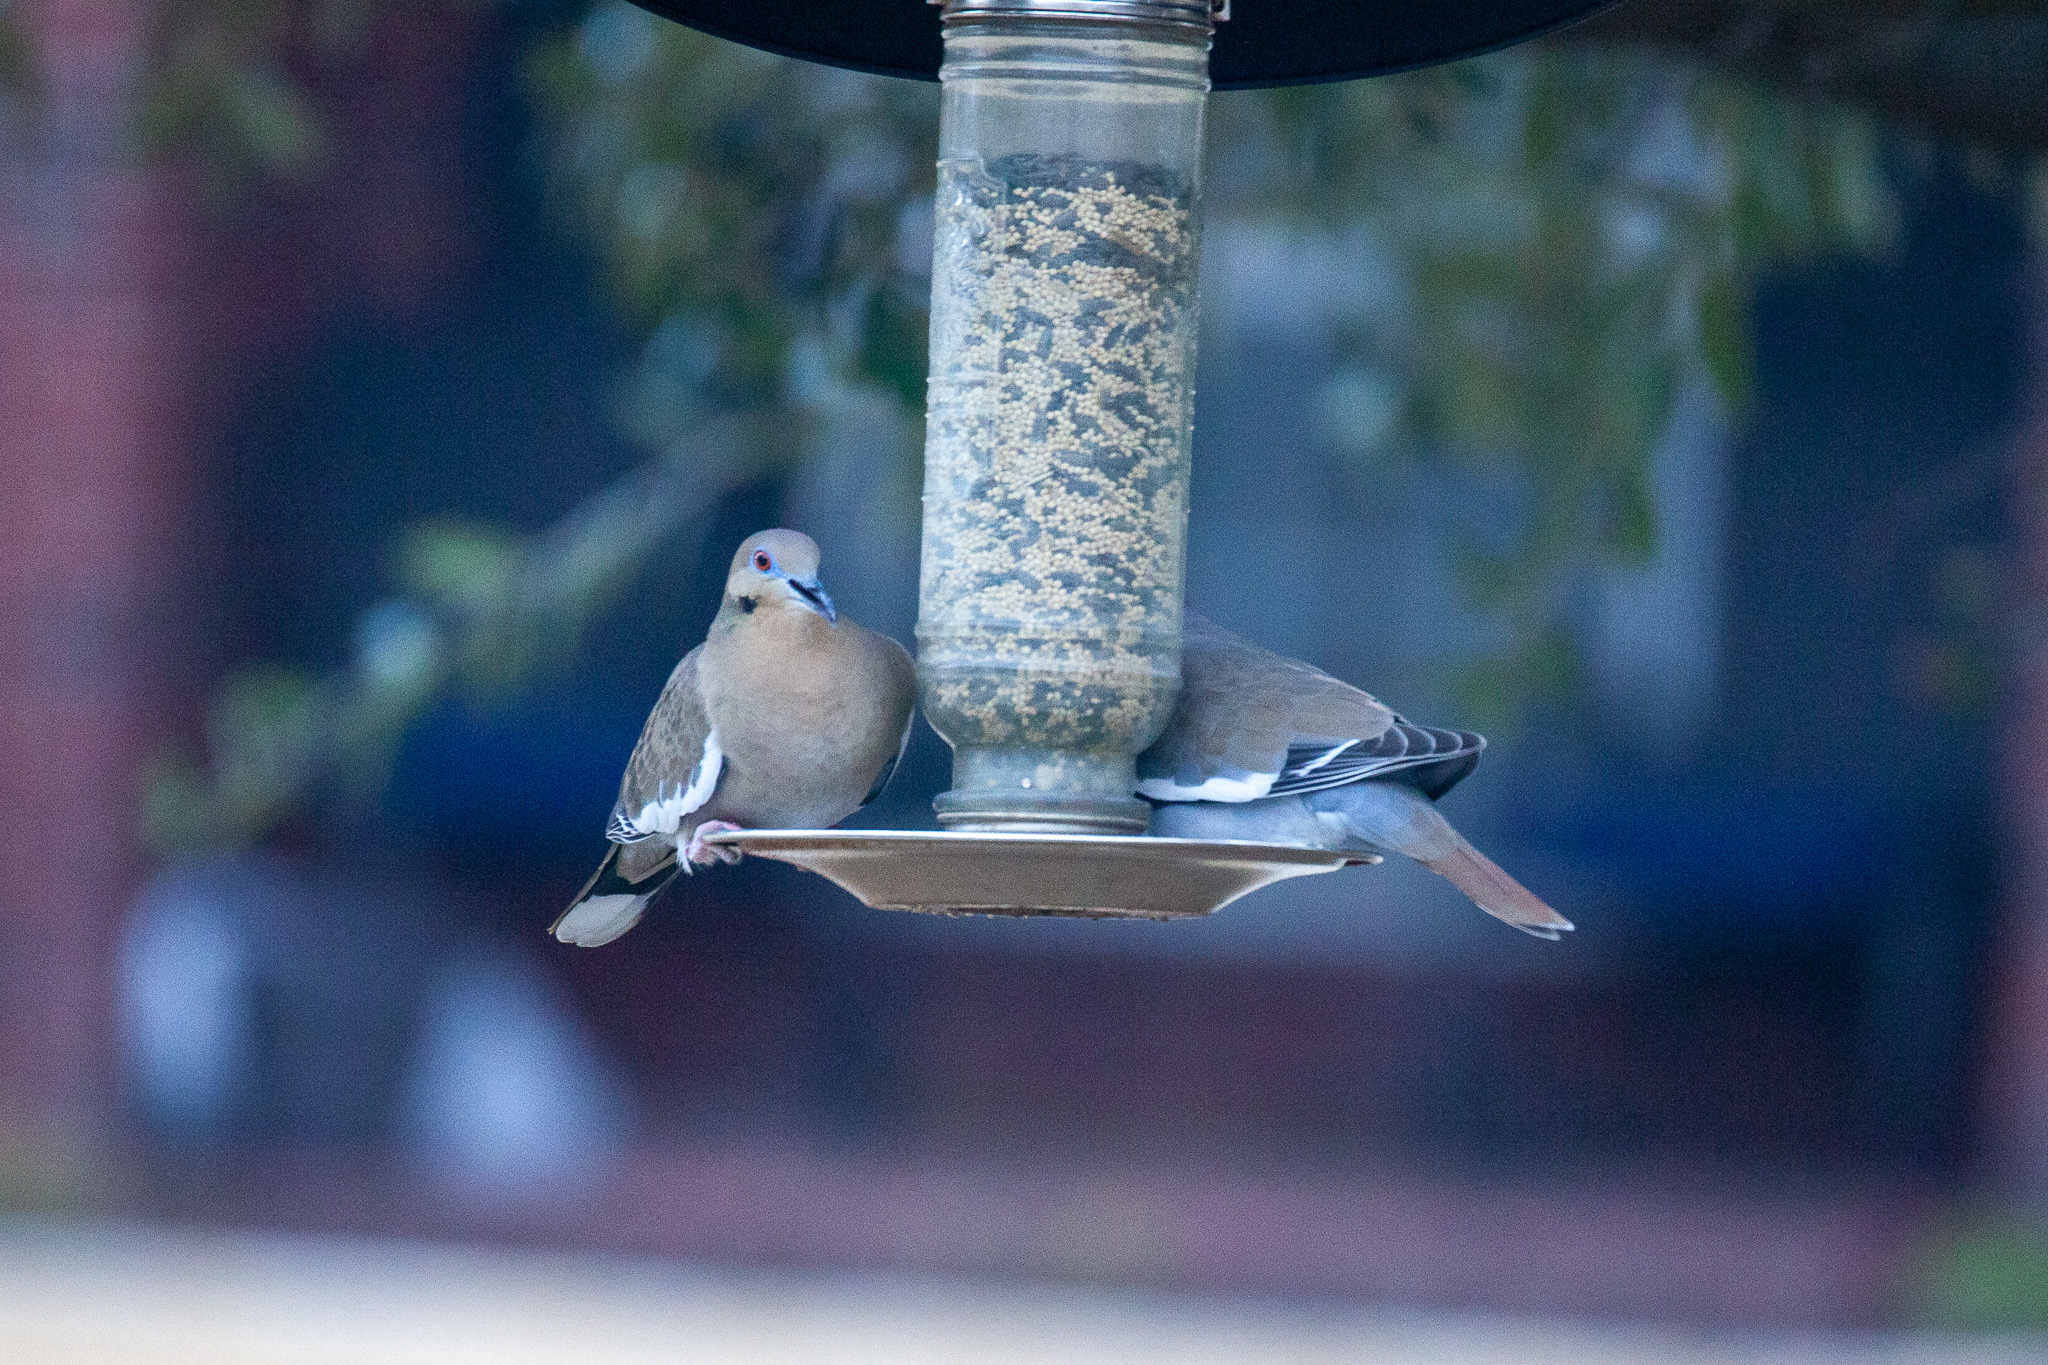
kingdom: Animalia
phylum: Chordata
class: Aves
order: Columbiformes
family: Columbidae
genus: Zenaida
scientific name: Zenaida asiatica
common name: White-winged dove
